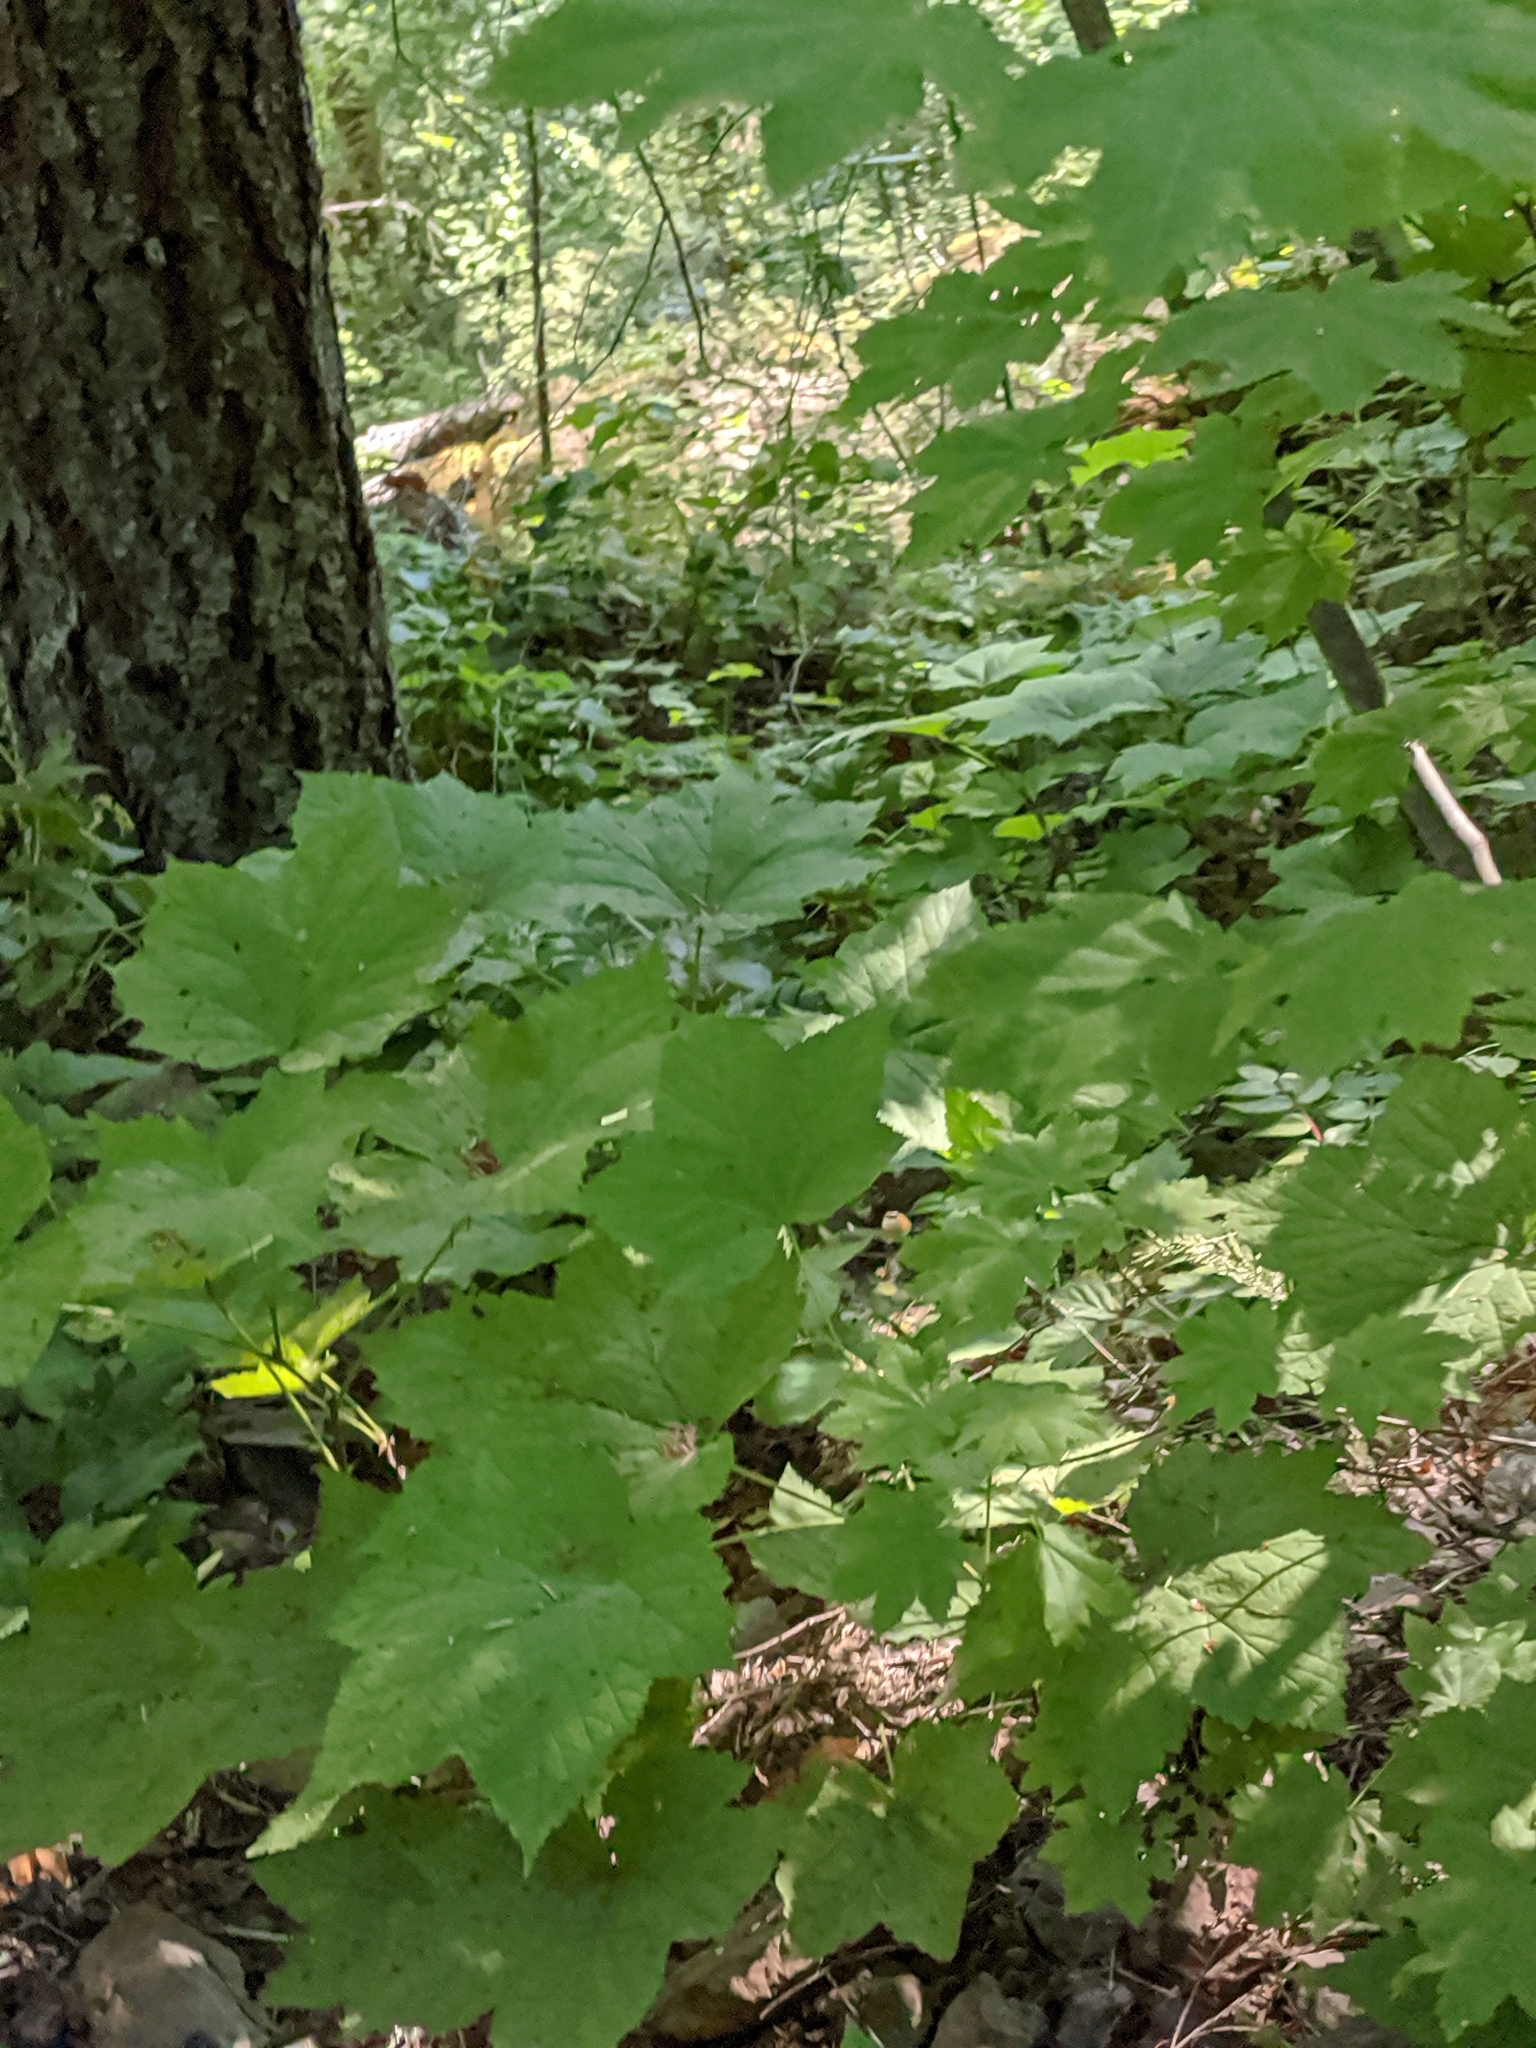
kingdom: Plantae
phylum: Tracheophyta
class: Magnoliopsida
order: Sapindales
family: Sapindaceae
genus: Acer
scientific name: Acer circinatum
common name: Vine maple
